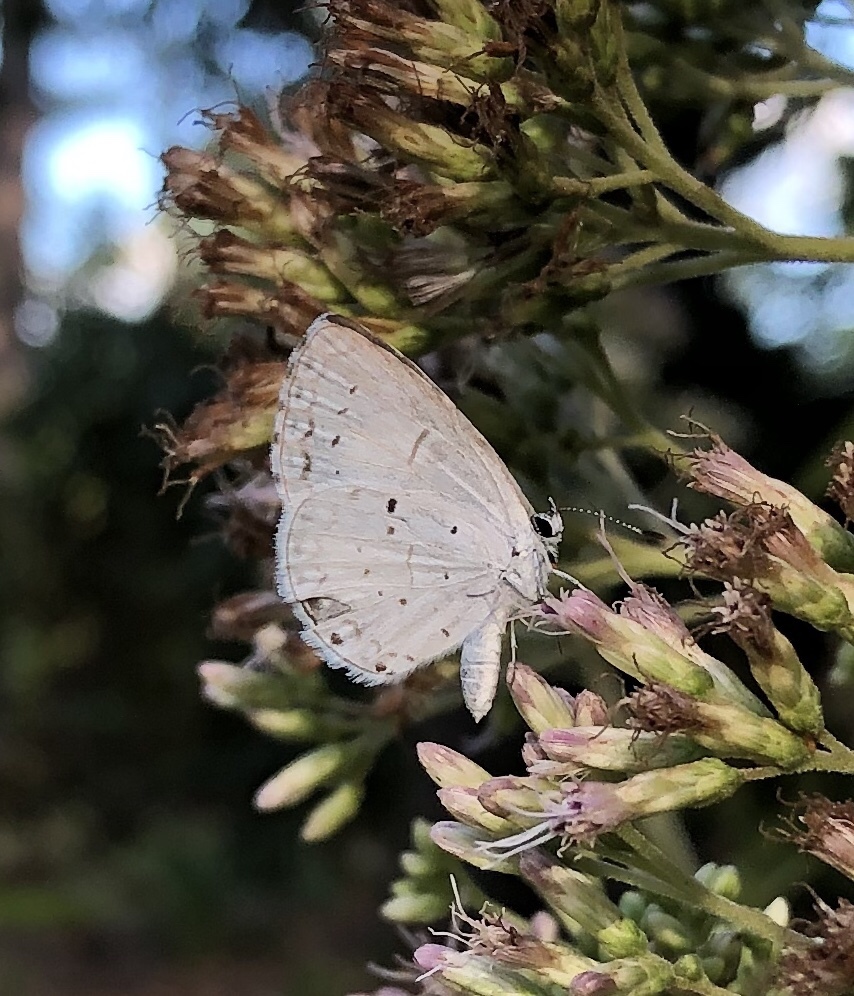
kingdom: Animalia
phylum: Arthropoda
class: Insecta
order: Lepidoptera
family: Lycaenidae
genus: Cyaniris
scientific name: Cyaniris neglecta
